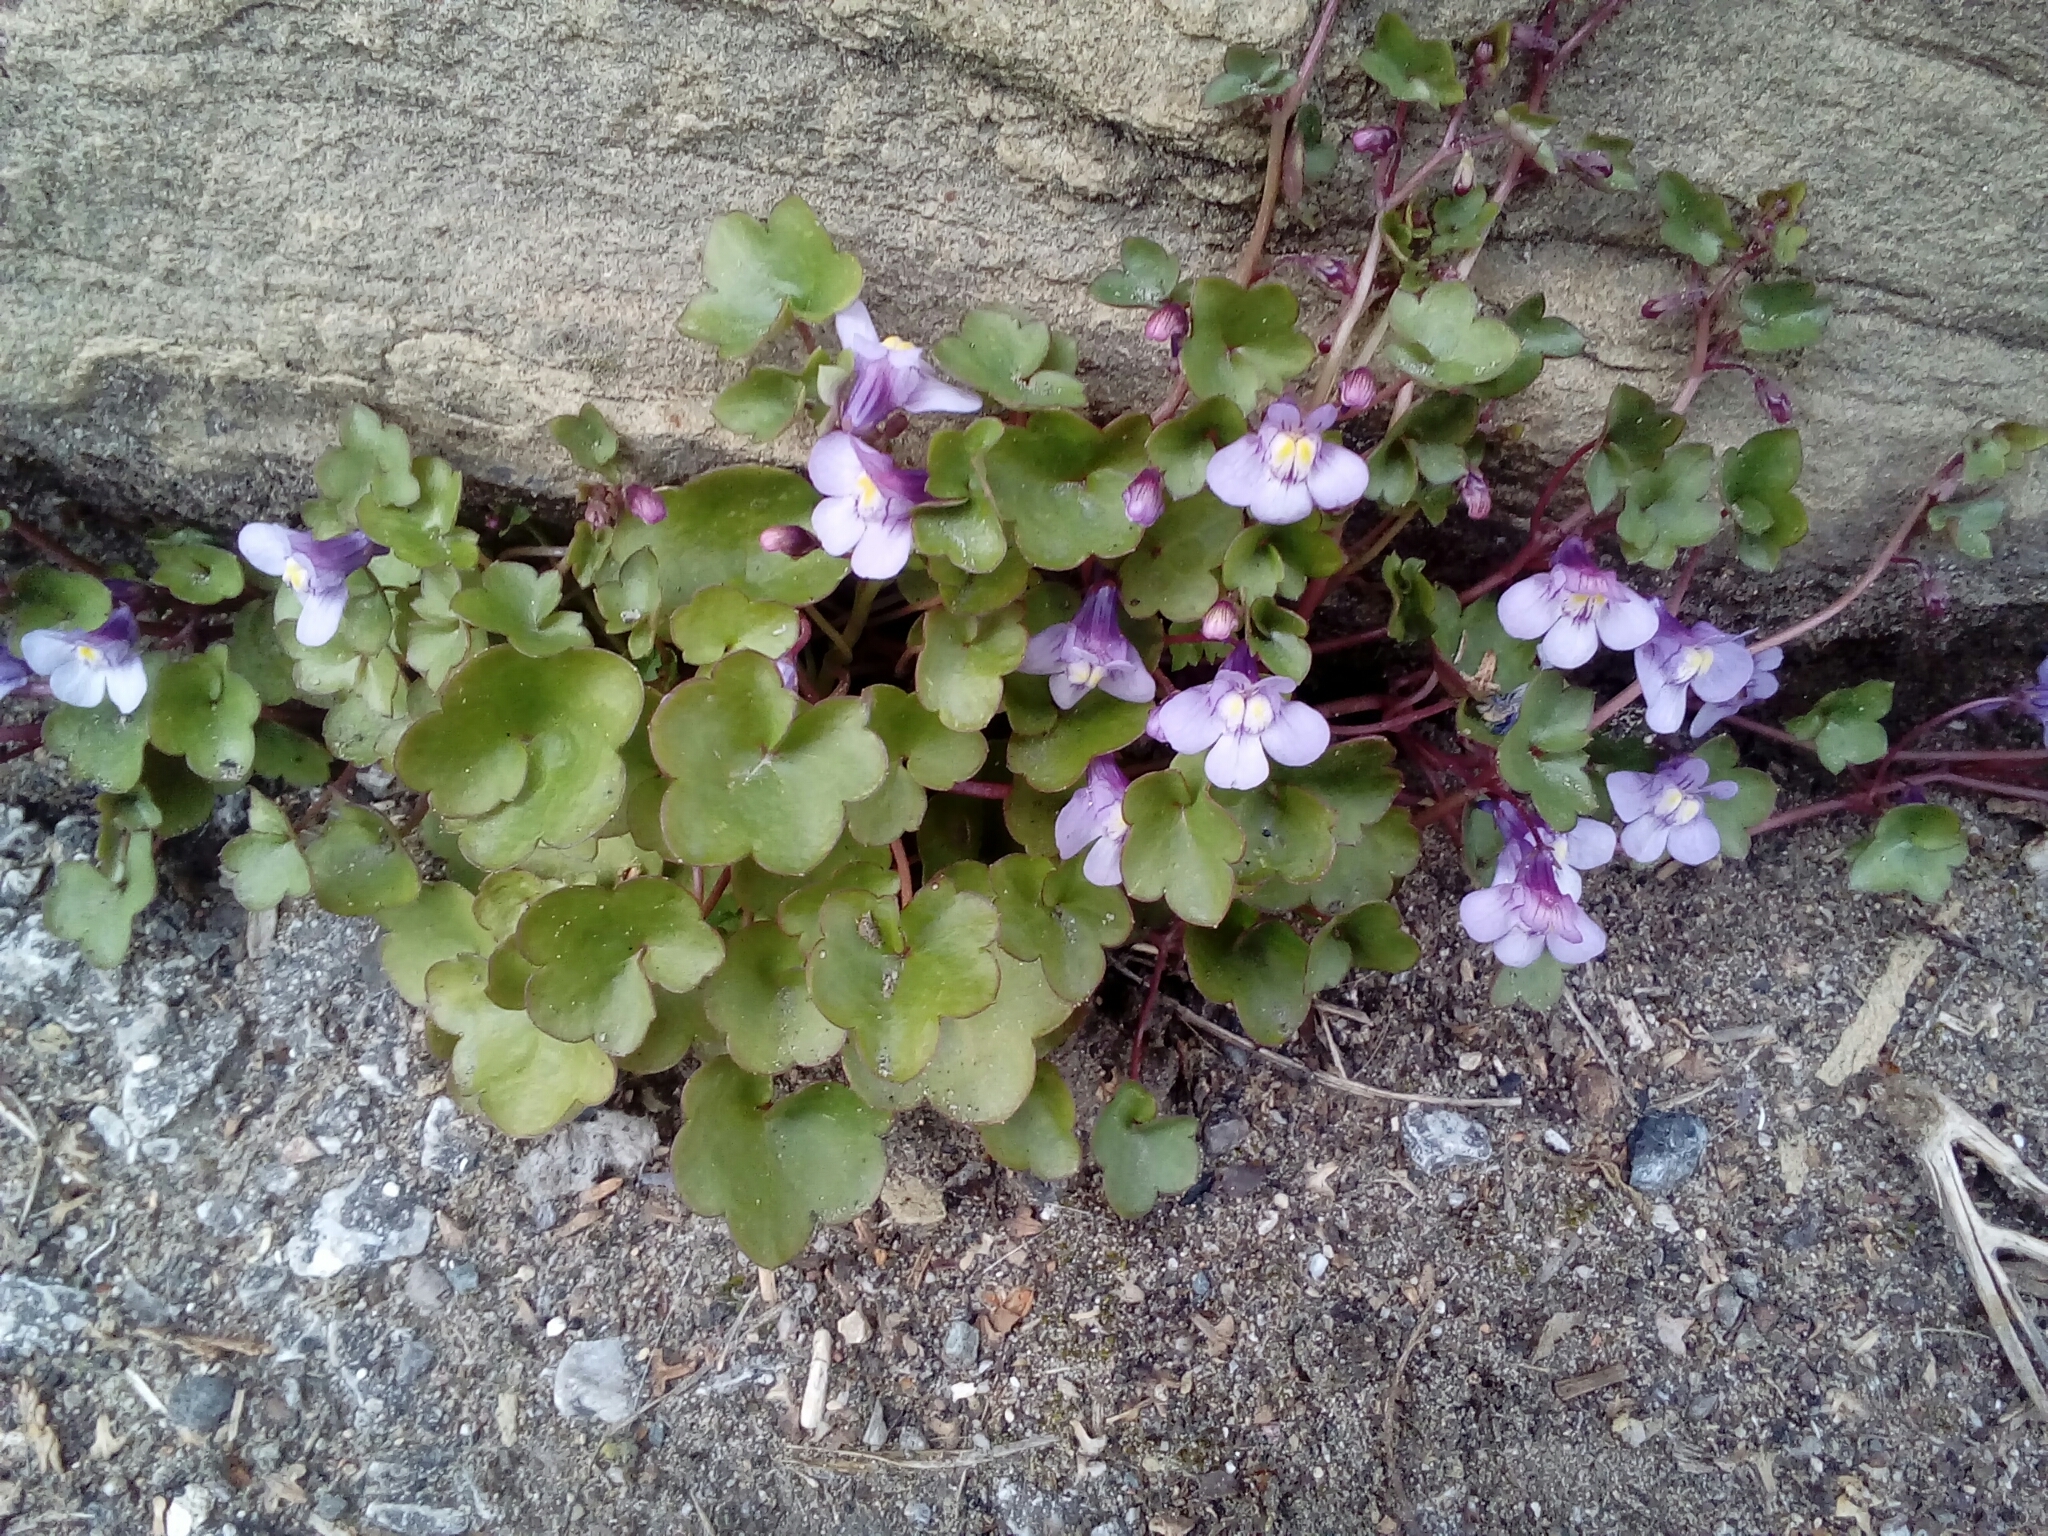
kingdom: Plantae
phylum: Tracheophyta
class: Magnoliopsida
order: Lamiales
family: Plantaginaceae
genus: Cymbalaria
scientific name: Cymbalaria muralis
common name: Ivy-leaved toadflax
